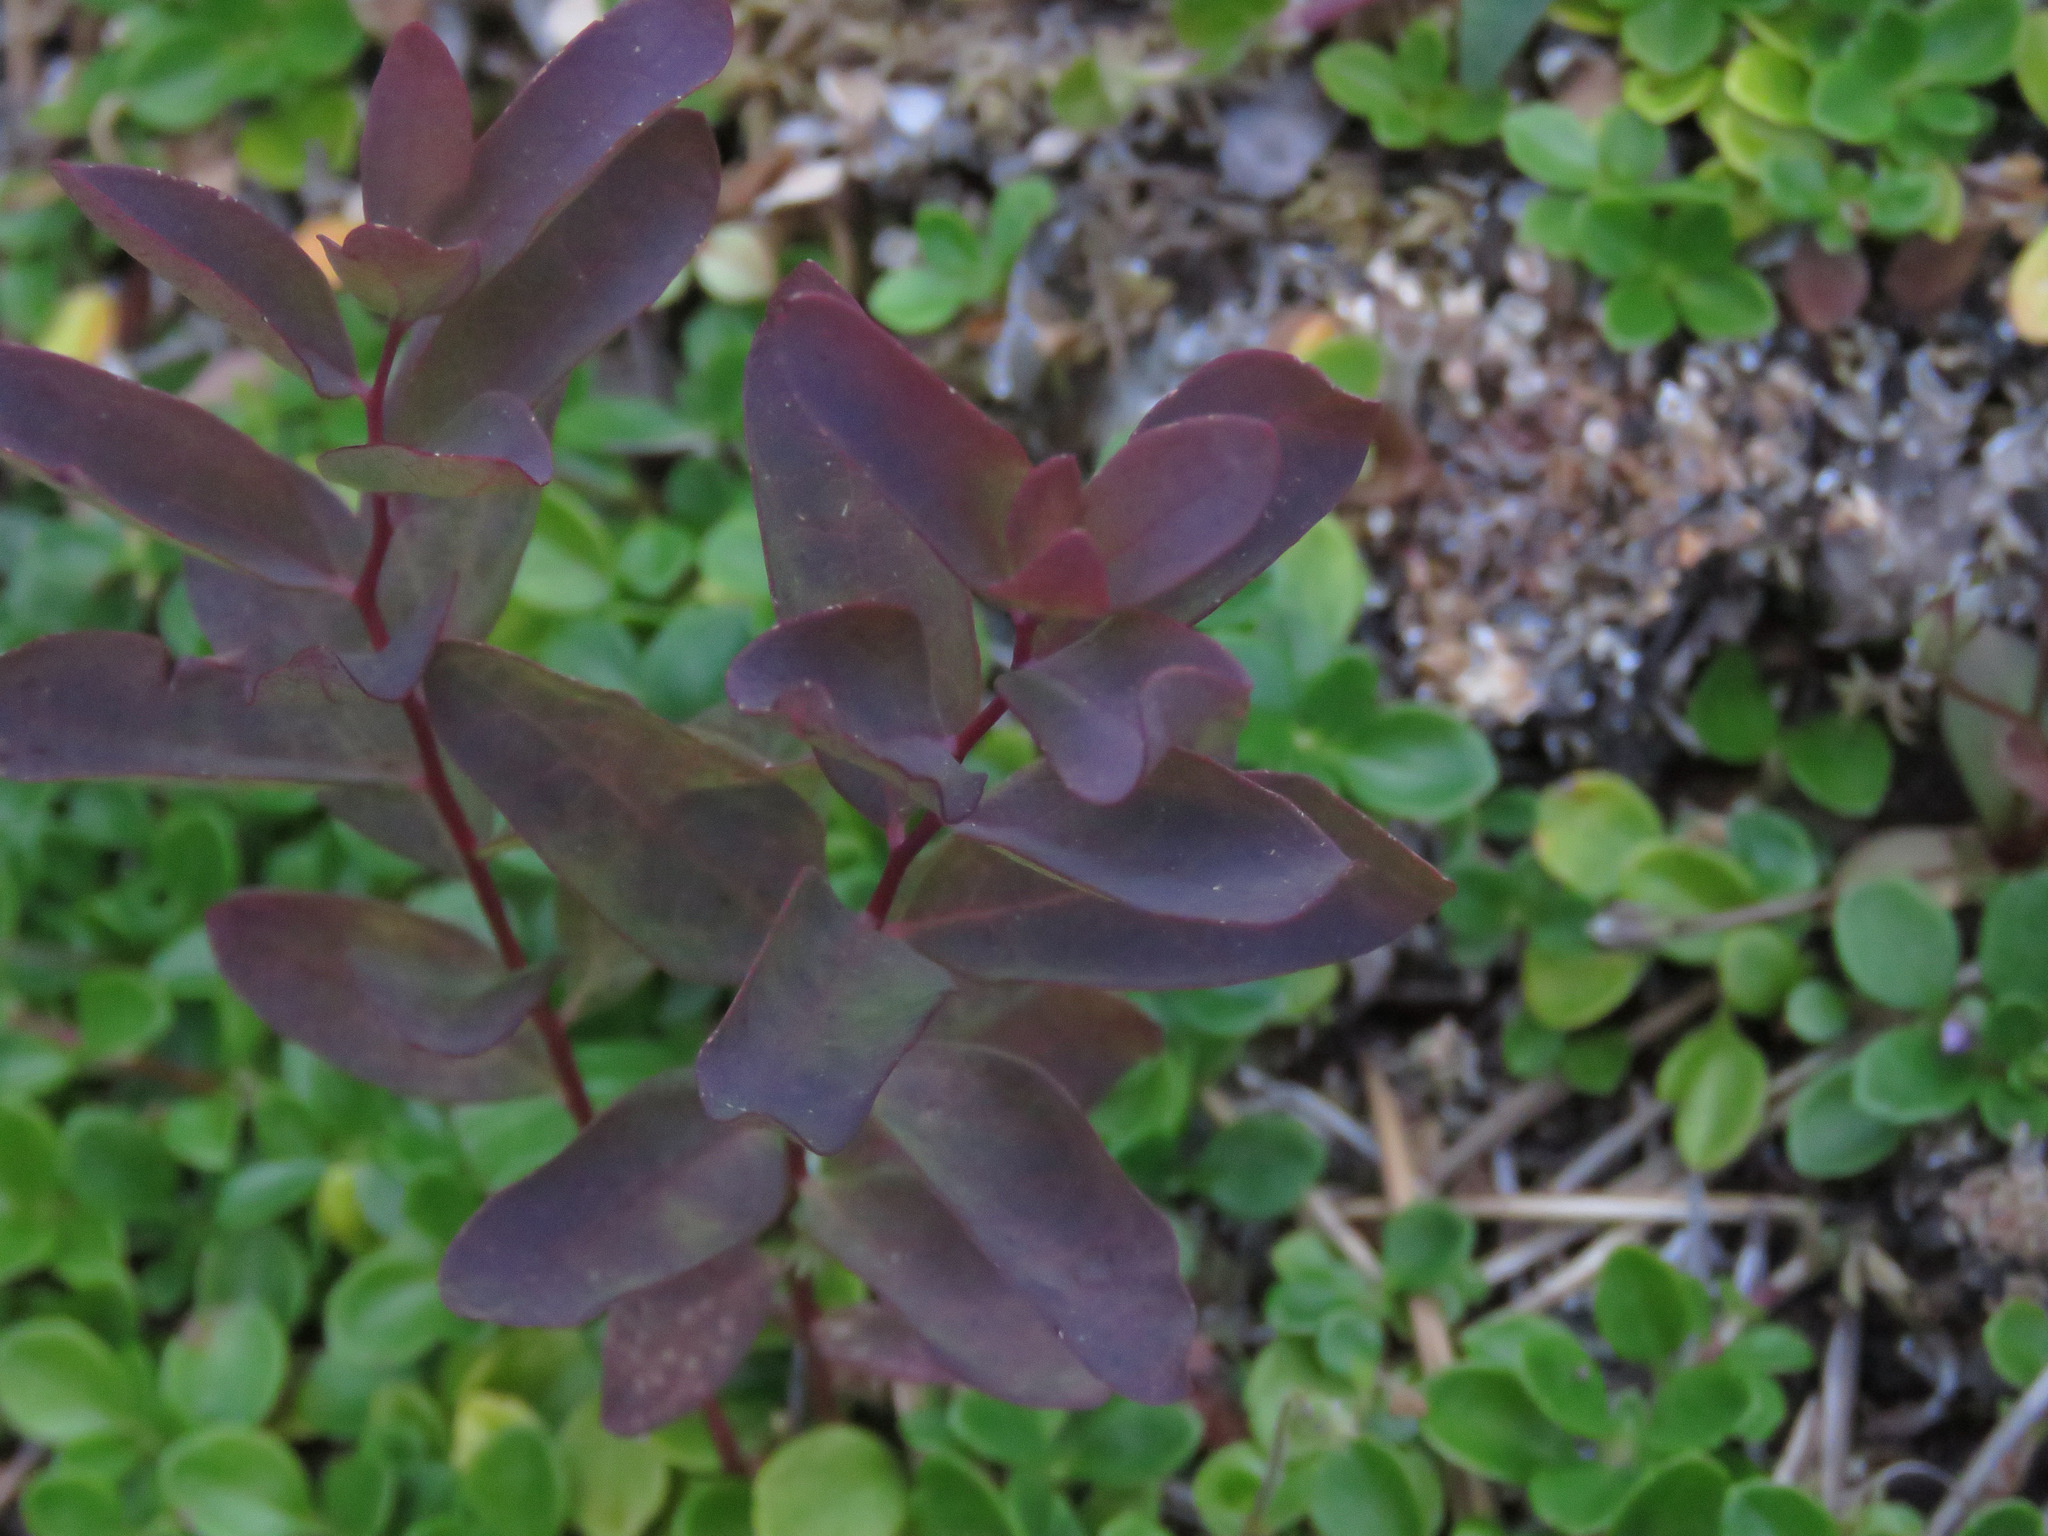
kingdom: Plantae
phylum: Tracheophyta
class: Magnoliopsida
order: Santalales
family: Comandraceae
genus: Geocaulon
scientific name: Geocaulon lividum
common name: Earthberry
